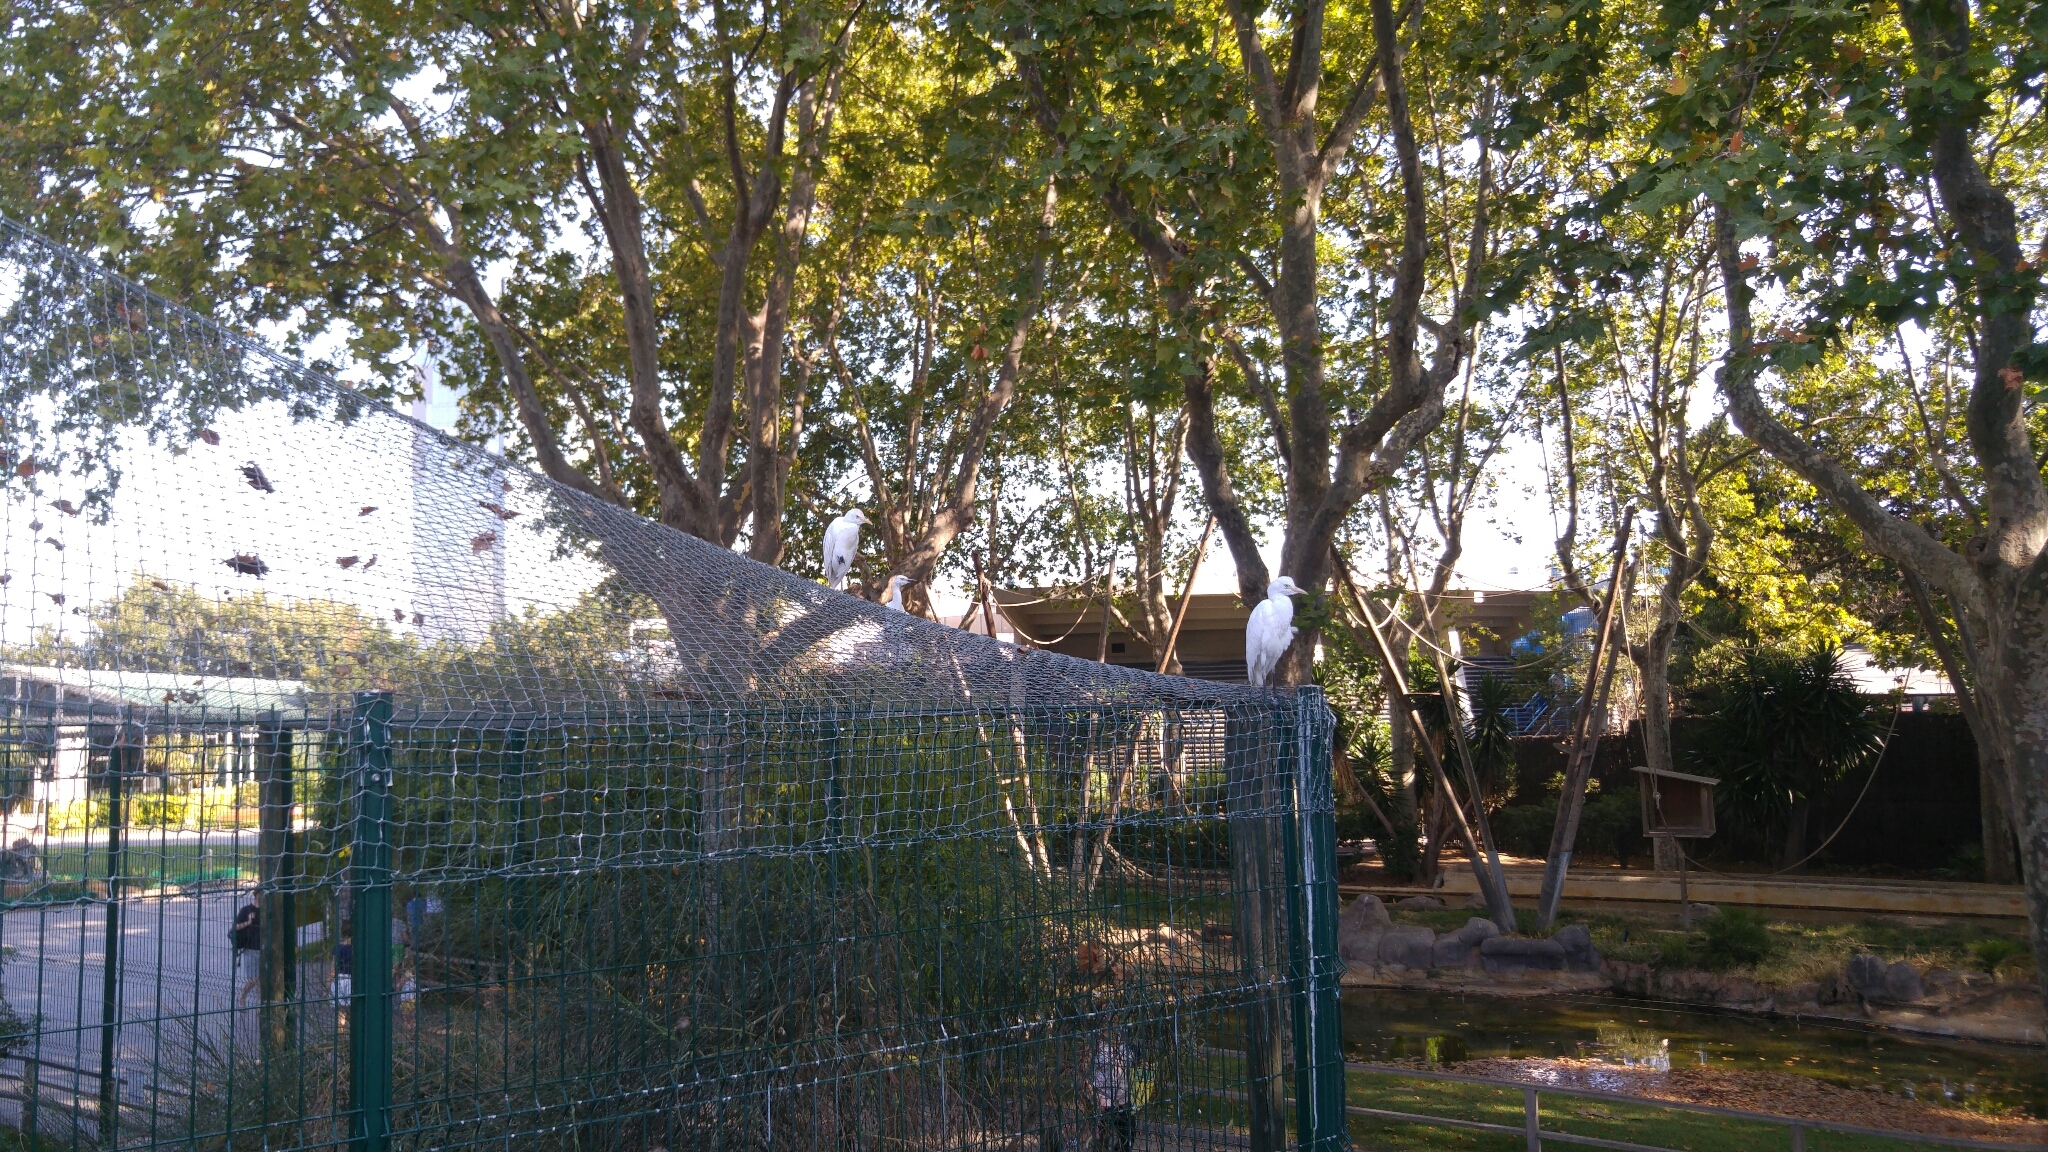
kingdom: Animalia
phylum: Chordata
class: Aves
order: Pelecaniformes
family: Ardeidae
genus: Bubulcus
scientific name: Bubulcus ibis
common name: Cattle egret
